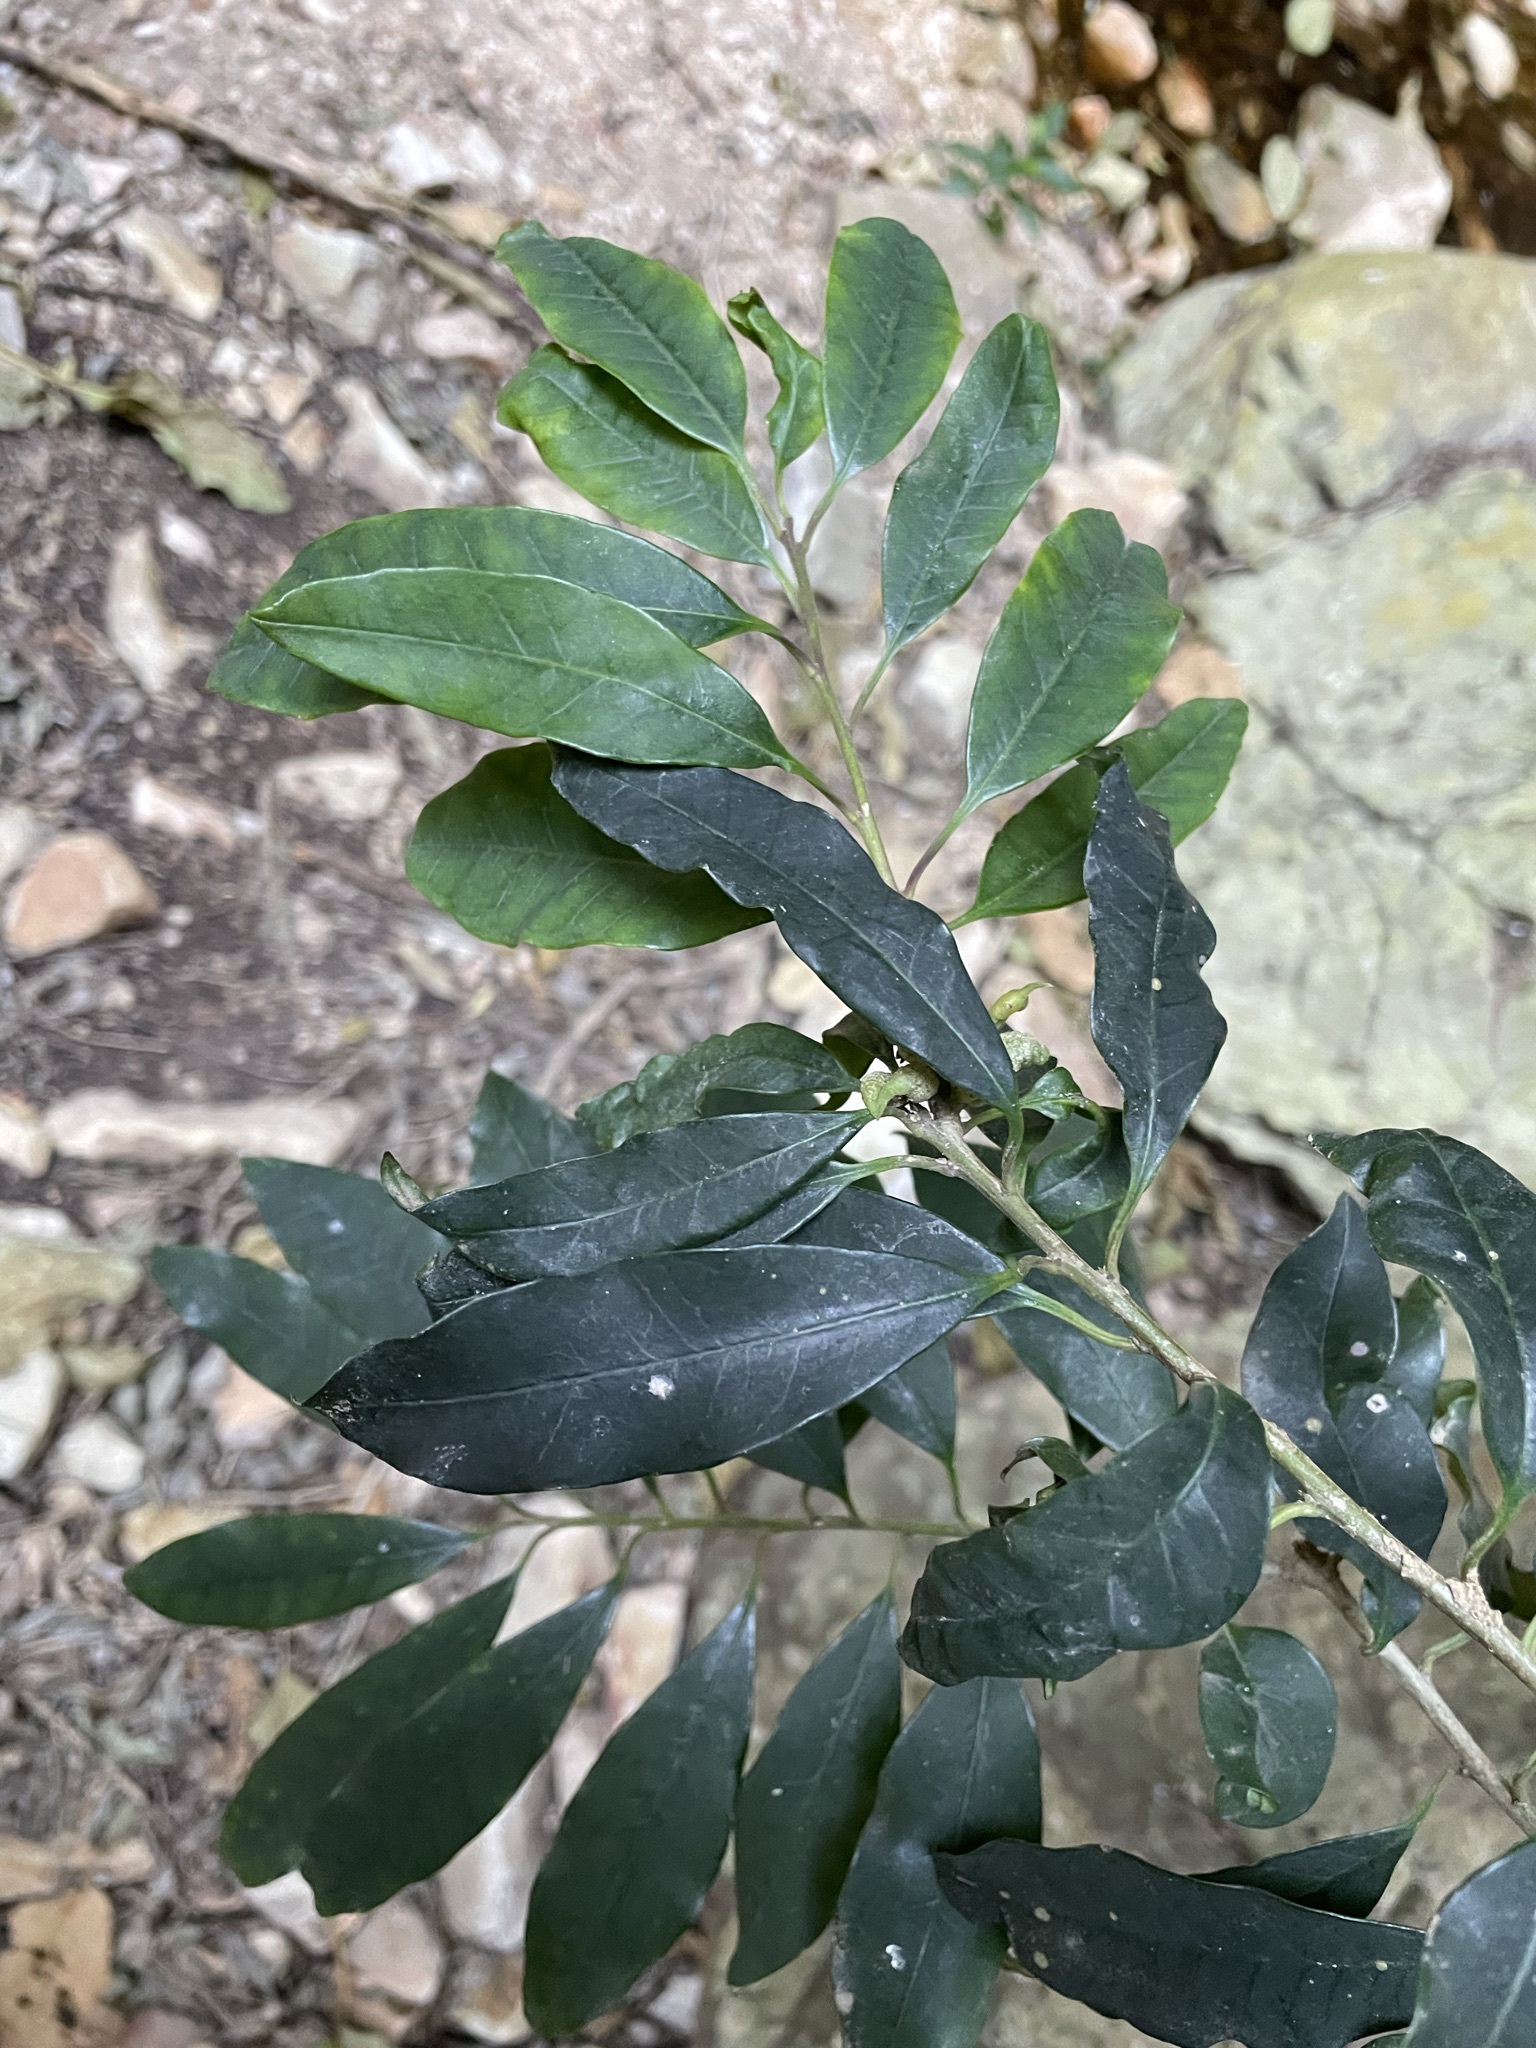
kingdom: Plantae
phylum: Tracheophyta
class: Magnoliopsida
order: Aquifoliales
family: Aquifoliaceae
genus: Ilex
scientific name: Ilex mitis
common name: African holly
